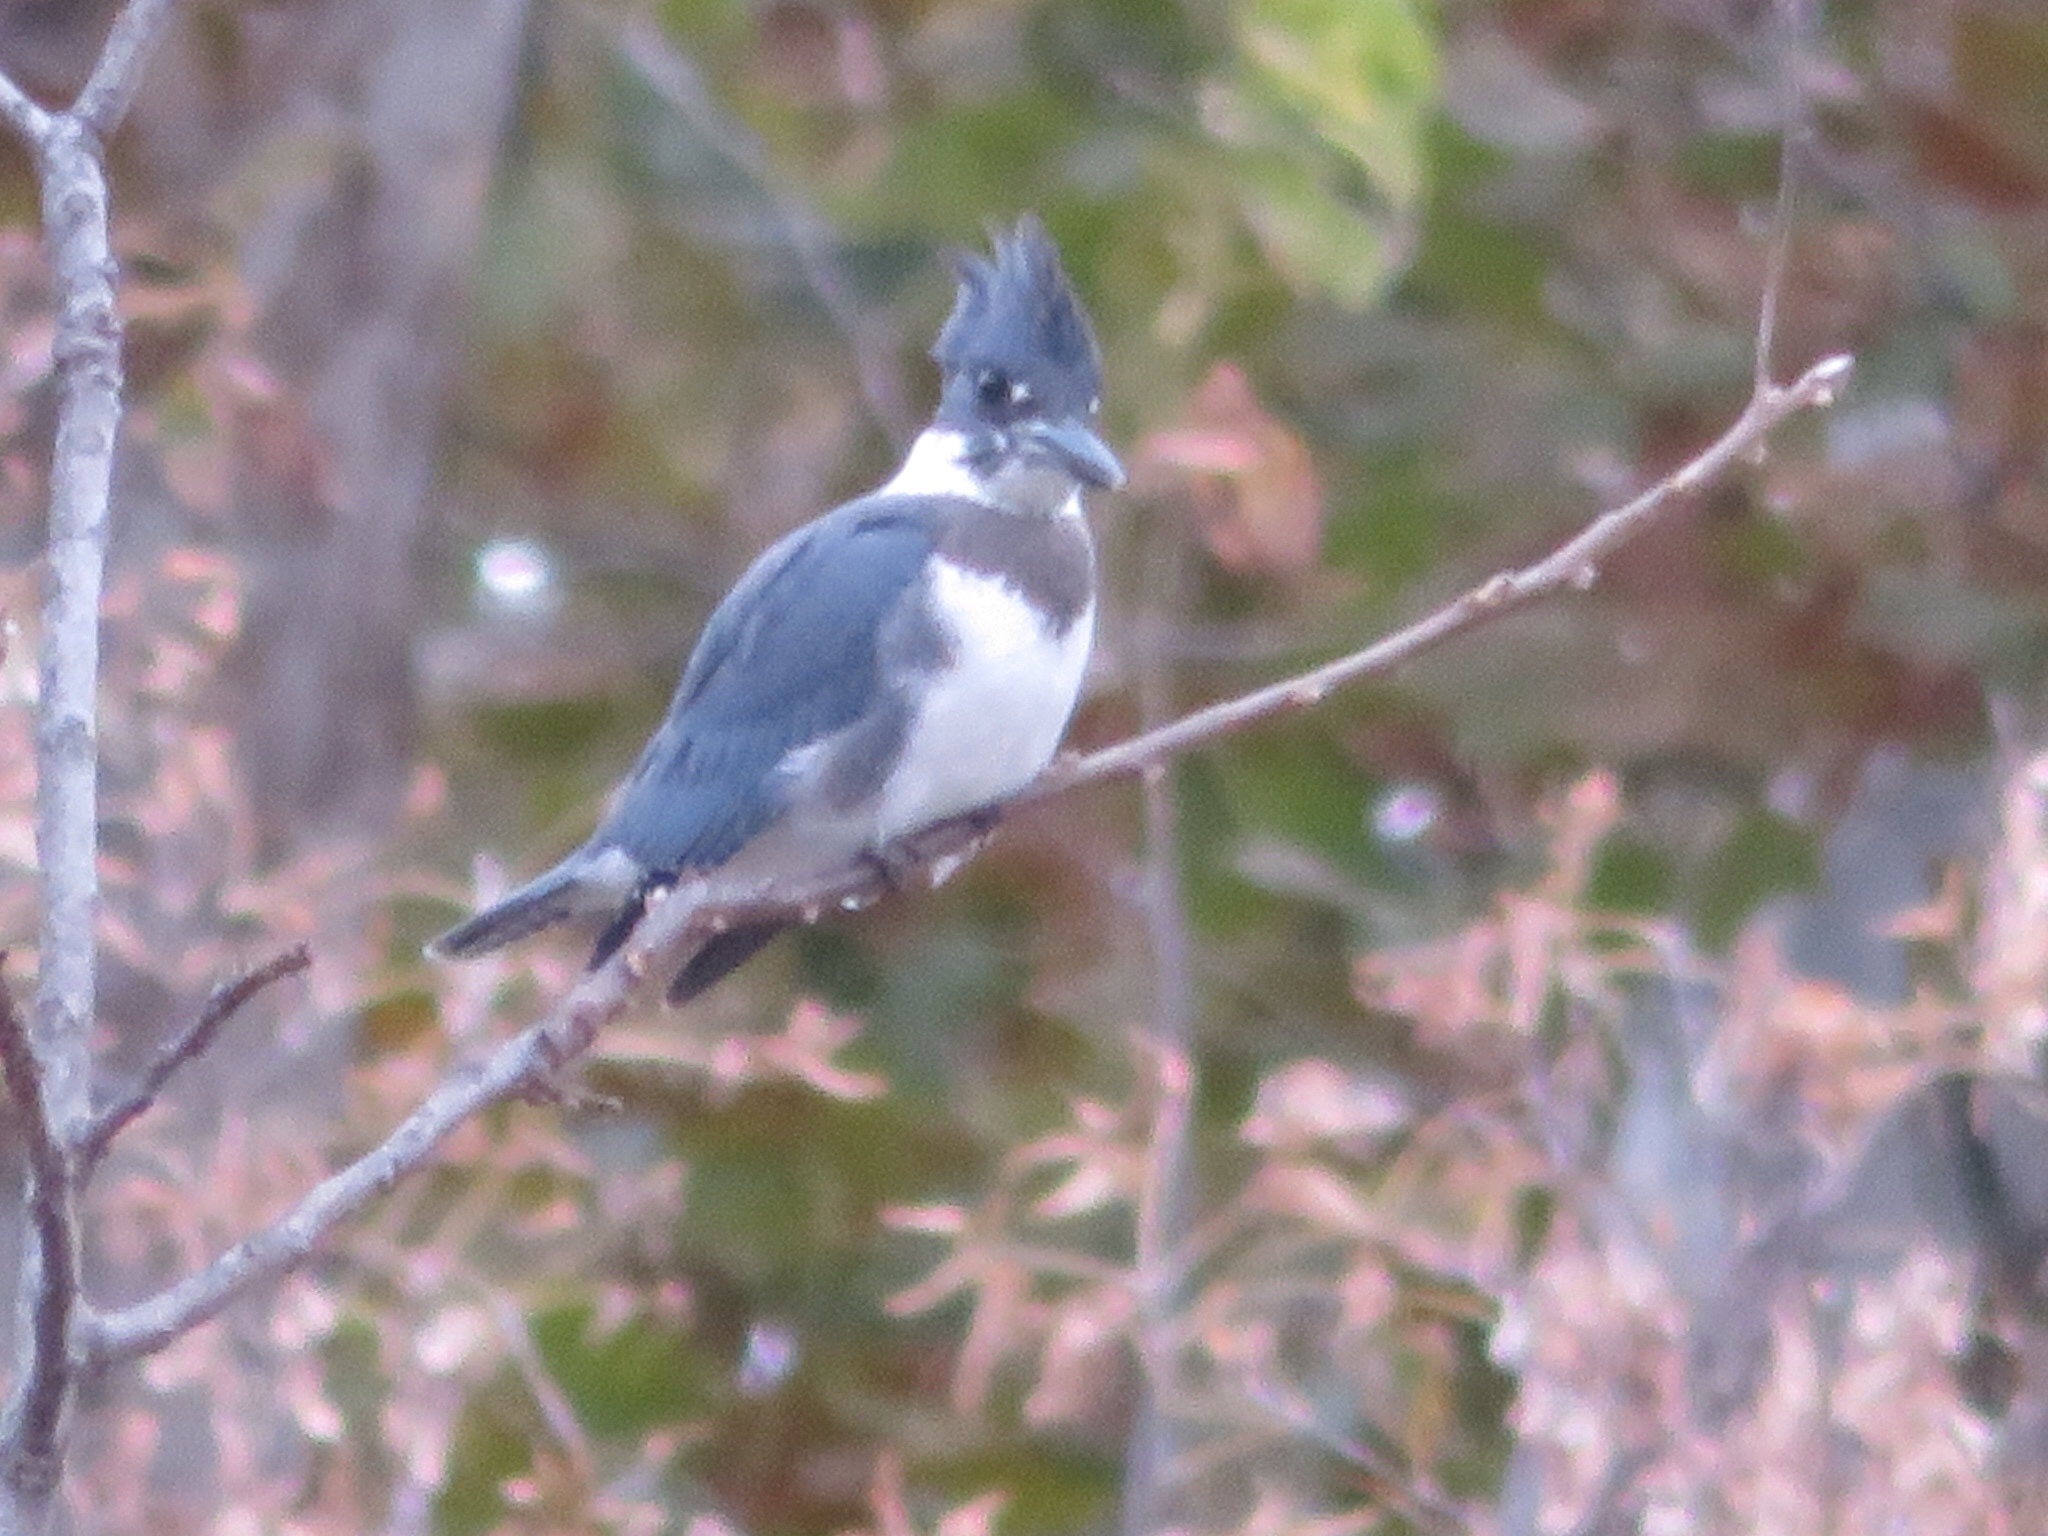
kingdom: Animalia
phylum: Chordata
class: Aves
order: Coraciiformes
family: Alcedinidae
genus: Megaceryle
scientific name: Megaceryle alcyon
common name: Belted kingfisher
